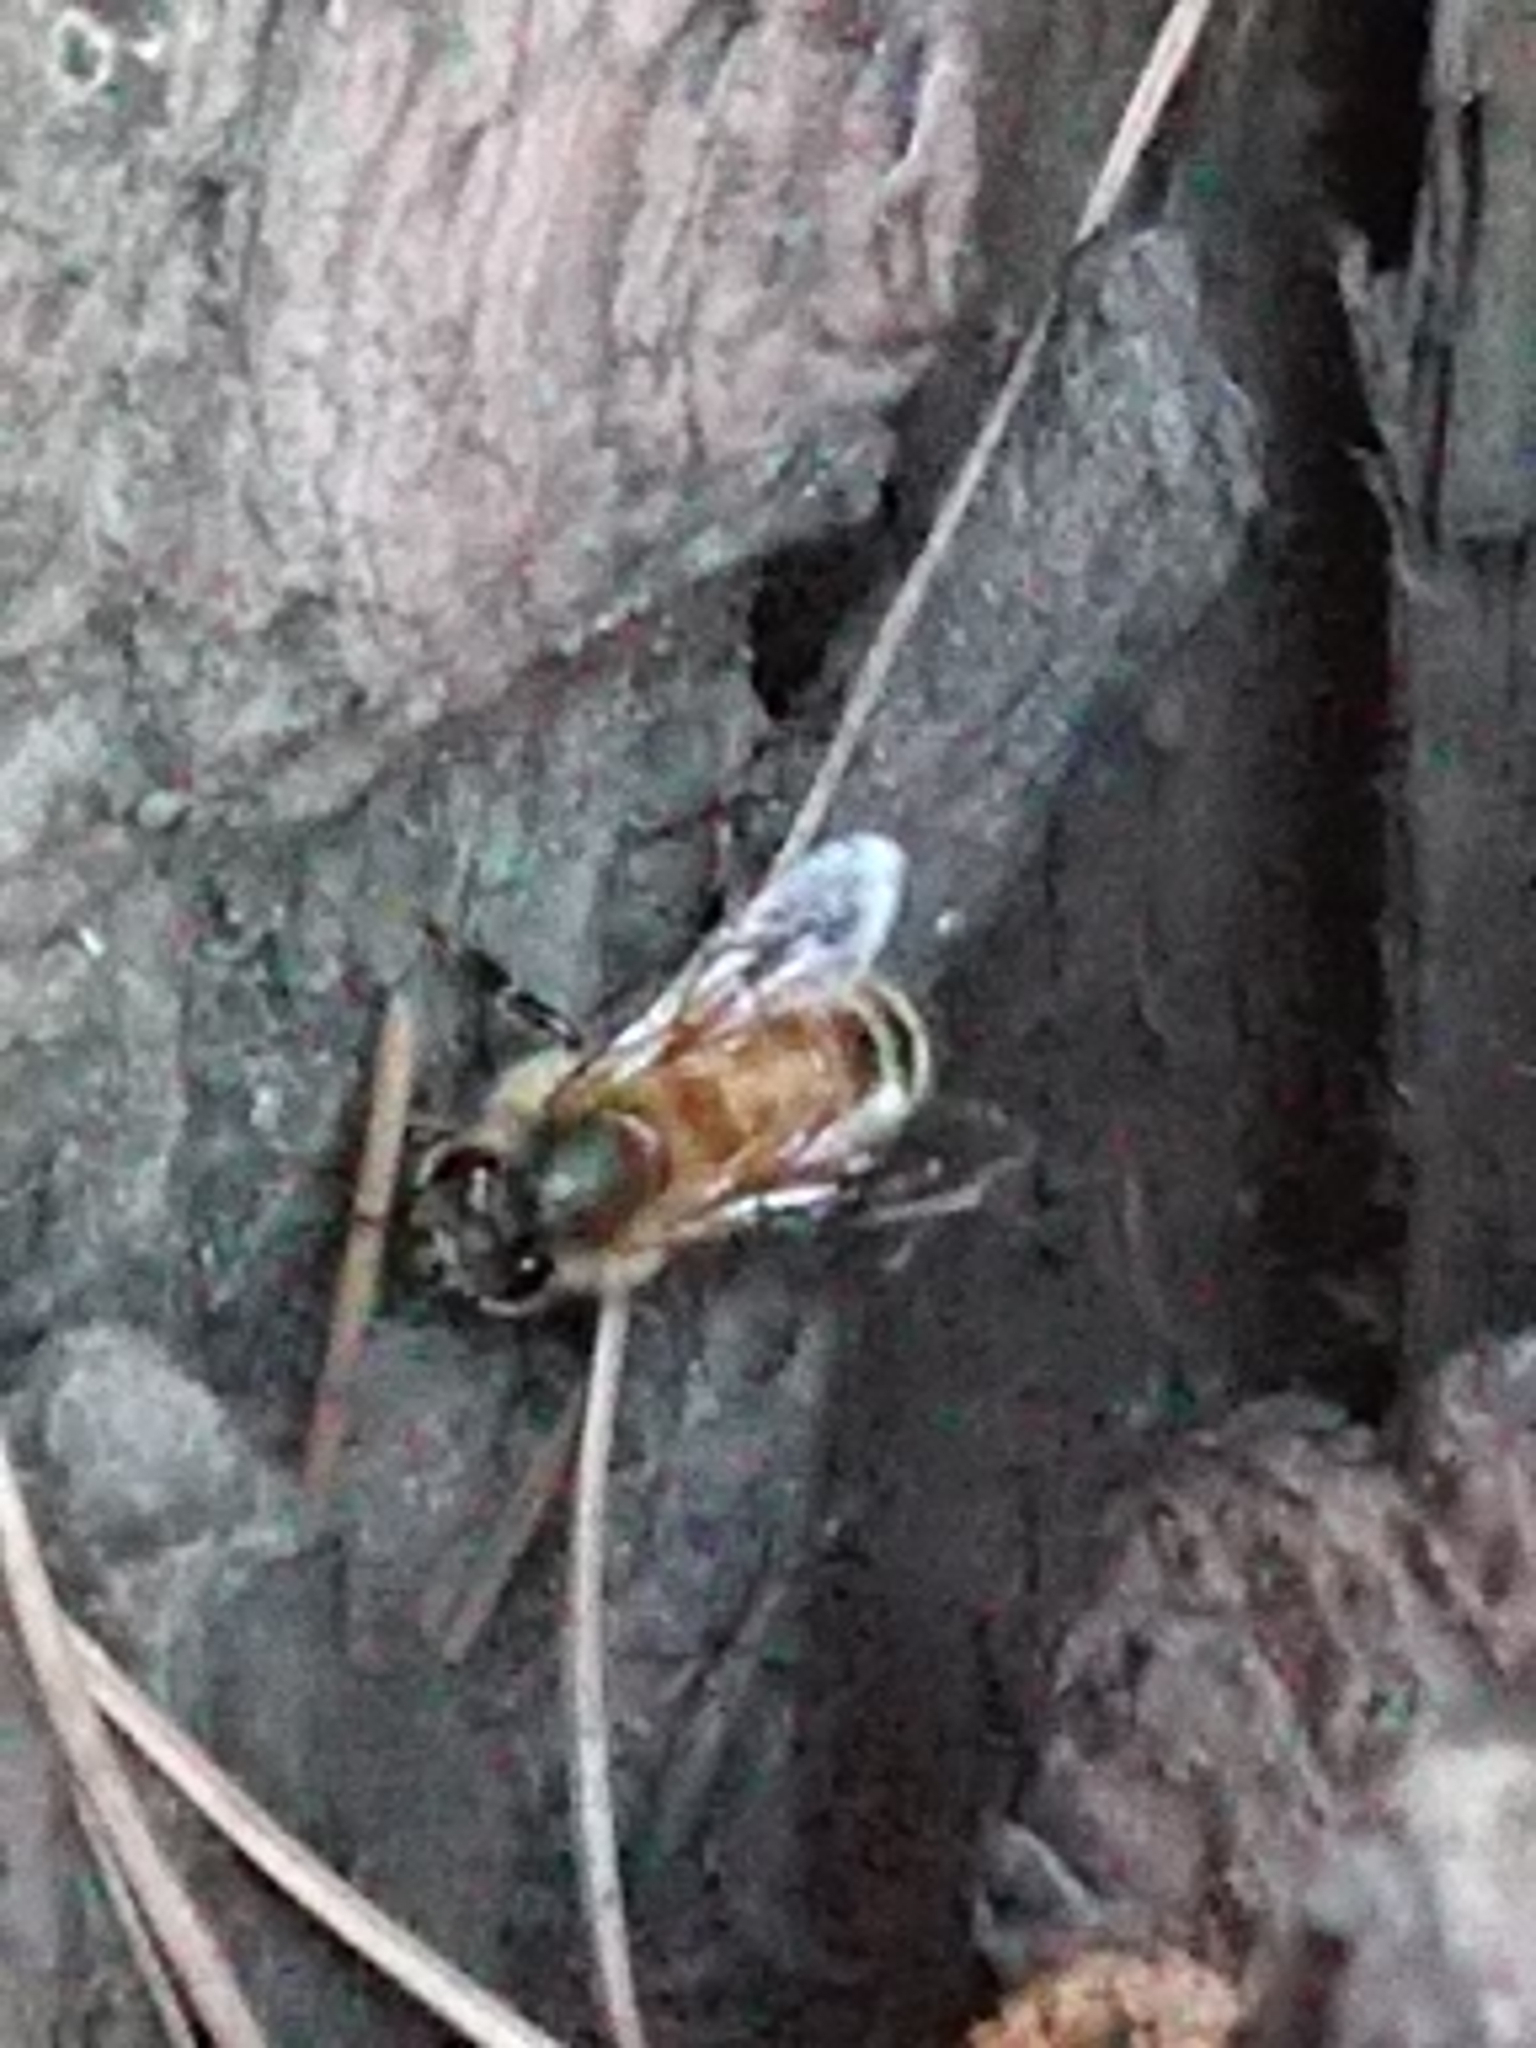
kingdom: Animalia
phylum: Arthropoda
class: Insecta
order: Hymenoptera
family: Apidae
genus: Apis
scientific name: Apis mellifera
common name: Honey bee
